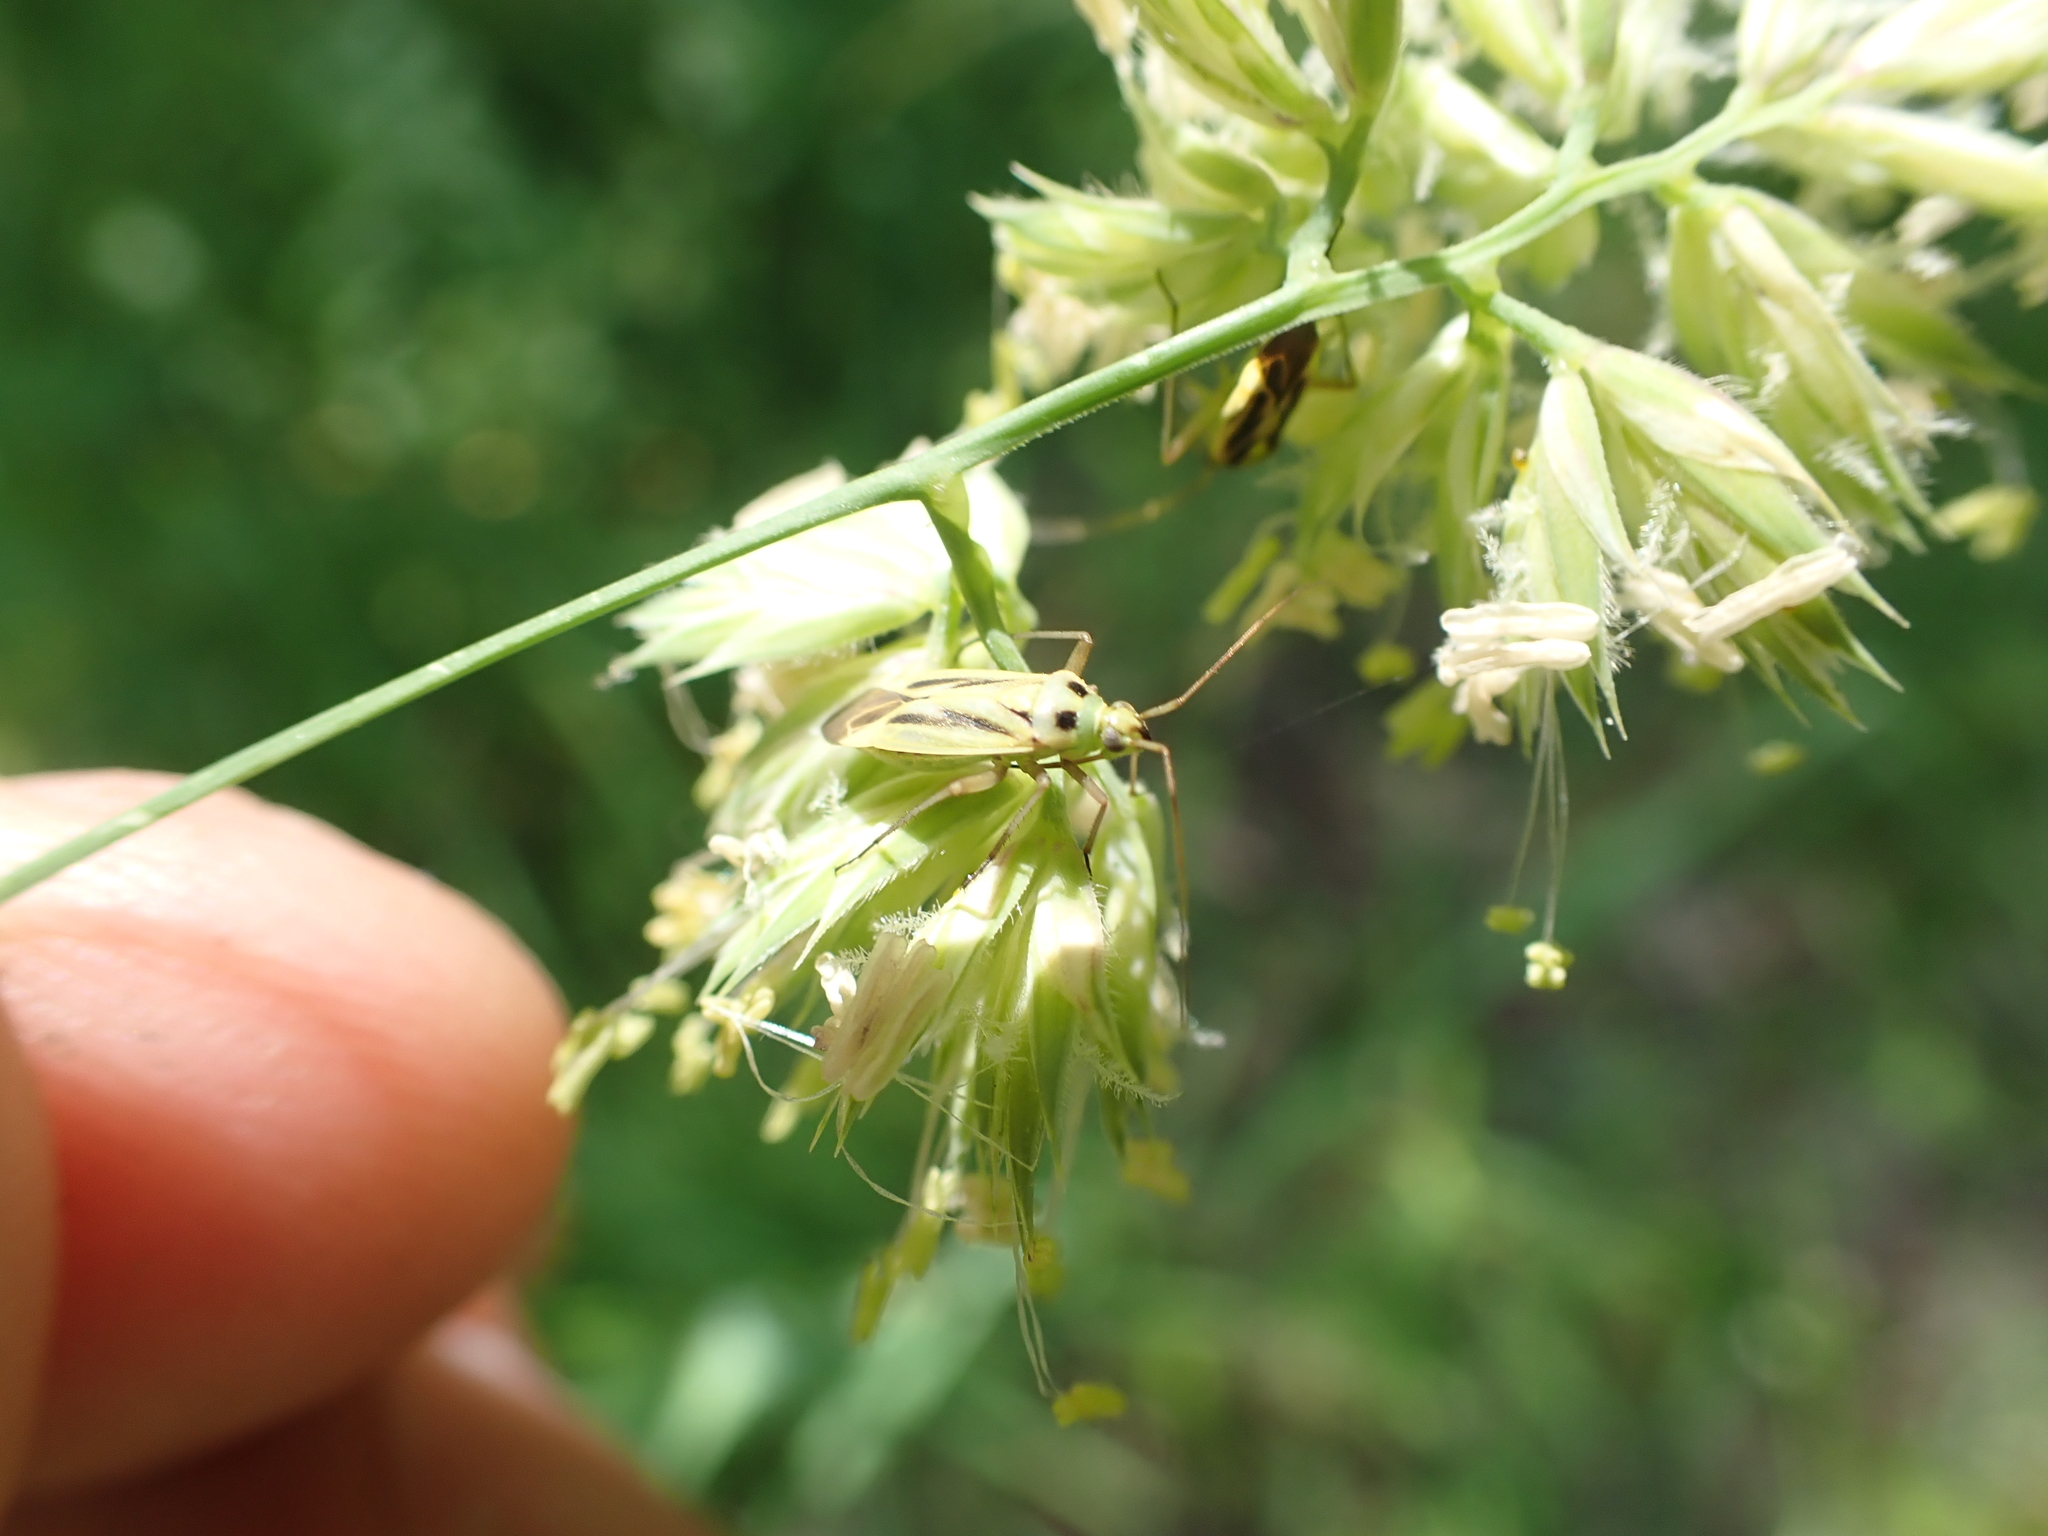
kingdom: Animalia
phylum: Arthropoda
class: Insecta
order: Hemiptera
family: Miridae
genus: Stenotus
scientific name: Stenotus binotatus
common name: Plant bug
